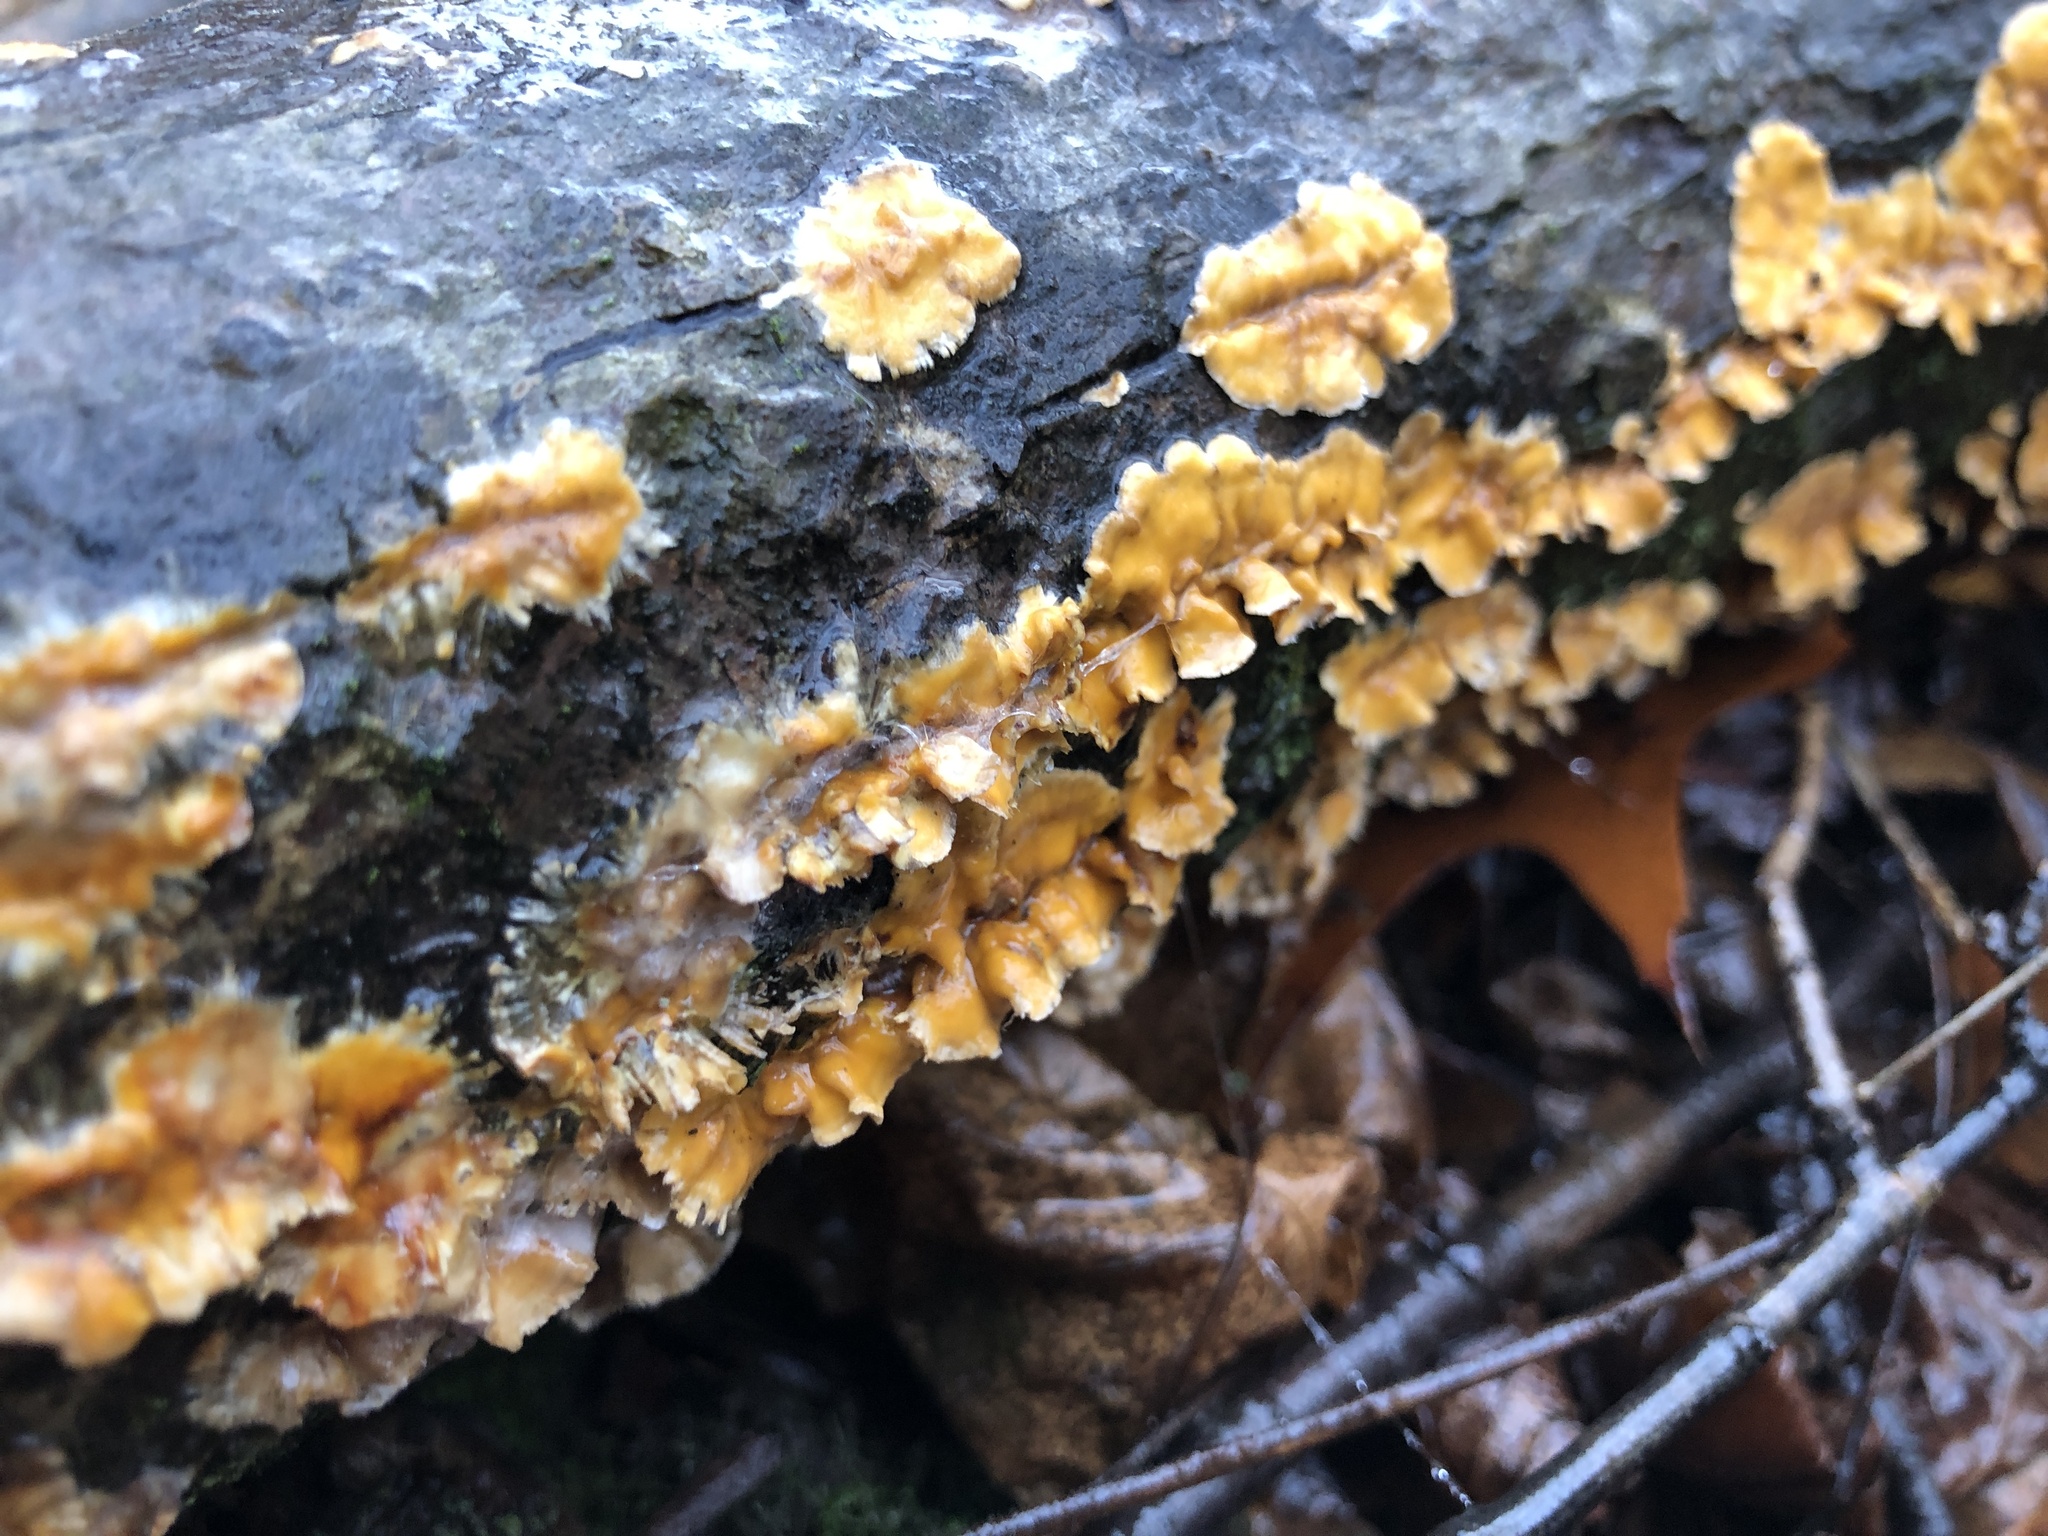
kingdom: Fungi
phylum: Basidiomycota
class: Agaricomycetes
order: Russulales
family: Stereaceae
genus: Stereum
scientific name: Stereum complicatum
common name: Crowded parchment
